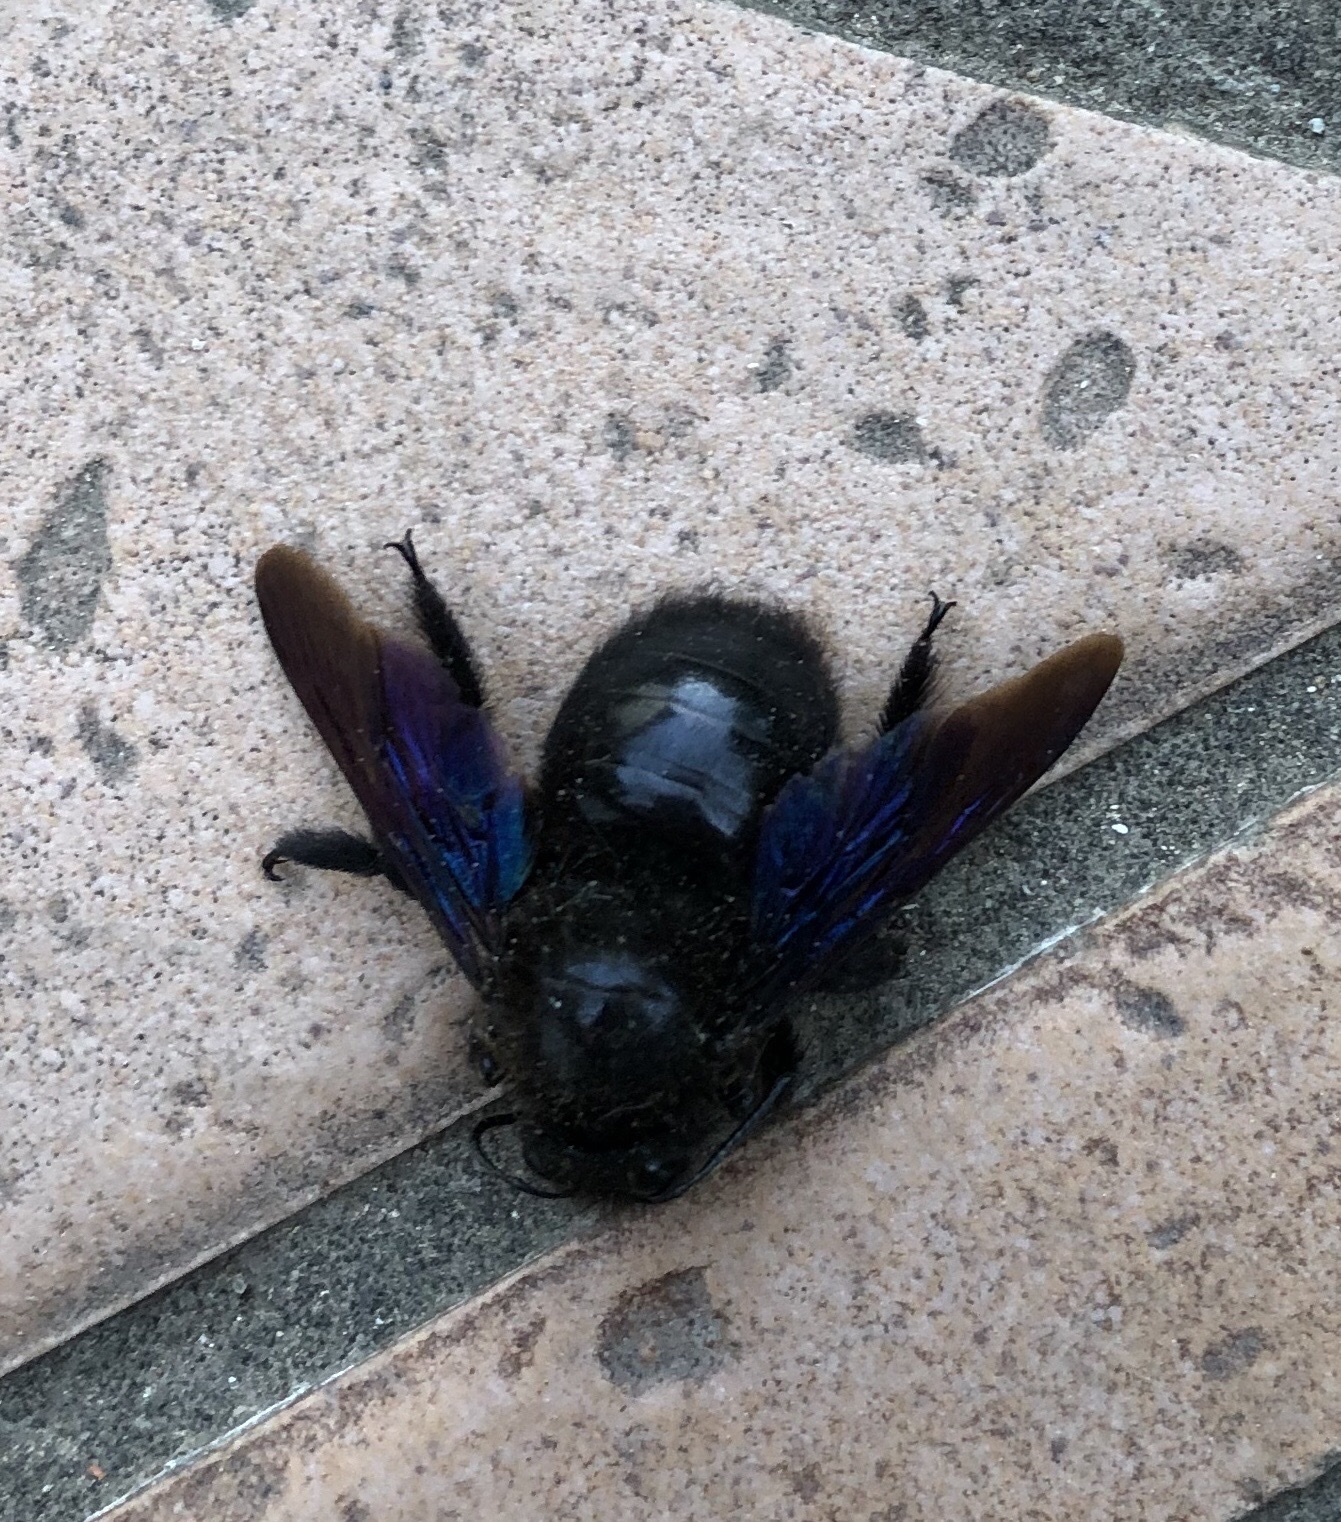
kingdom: Animalia
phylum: Arthropoda
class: Insecta
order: Hymenoptera
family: Apidae
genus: Xylocopa
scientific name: Xylocopa violacea
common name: Violet carpenter bee
